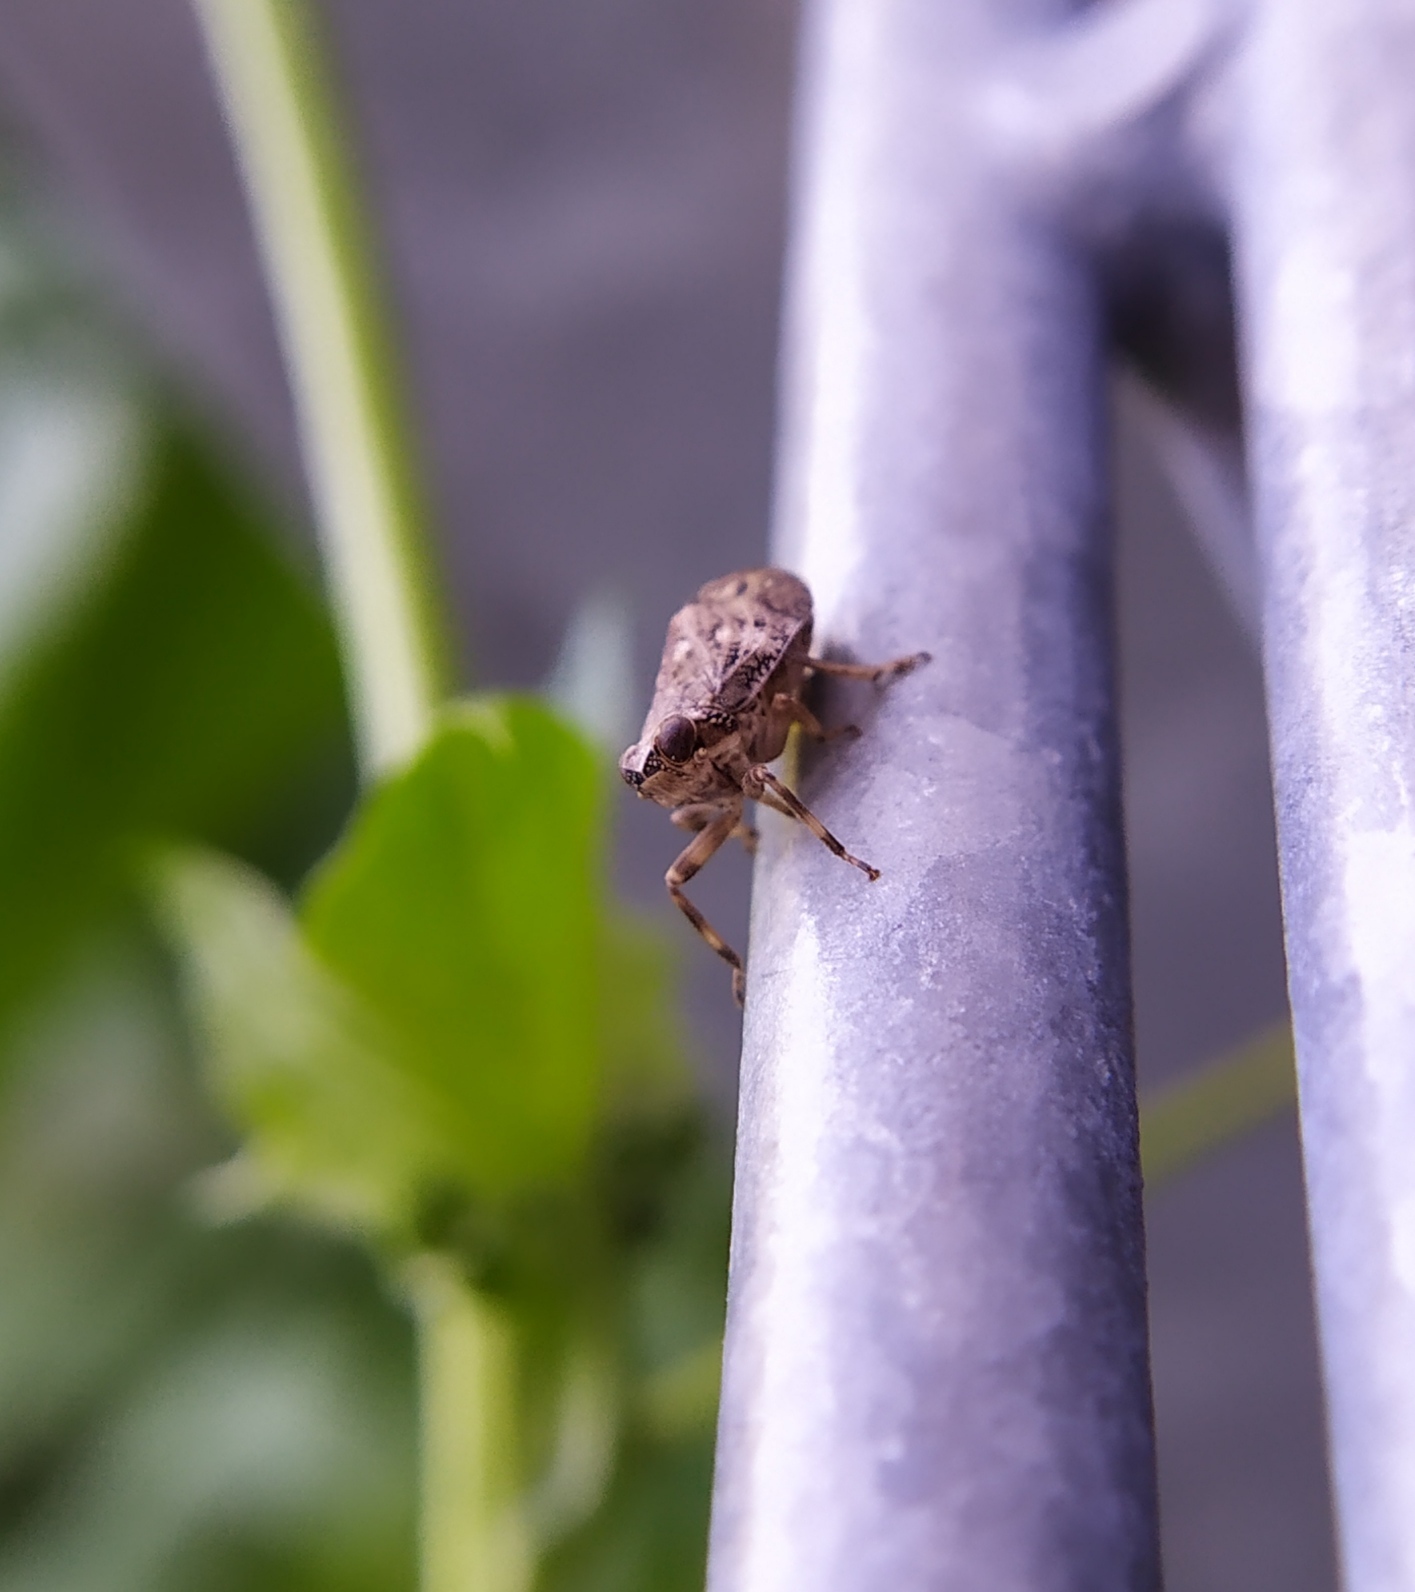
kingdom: Animalia
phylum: Arthropoda
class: Insecta
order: Hemiptera
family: Issidae
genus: Issus
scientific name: Issus coleoptratus
